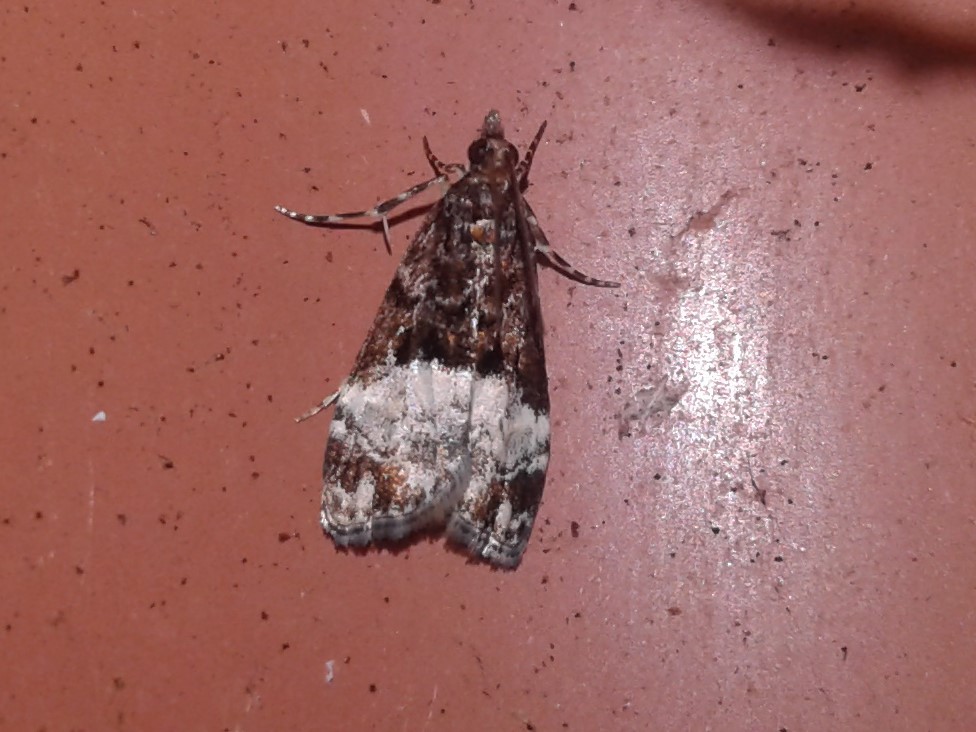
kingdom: Animalia
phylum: Arthropoda
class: Insecta
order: Lepidoptera
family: Crambidae
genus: Scoparia
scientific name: Scoparia minusculalis
